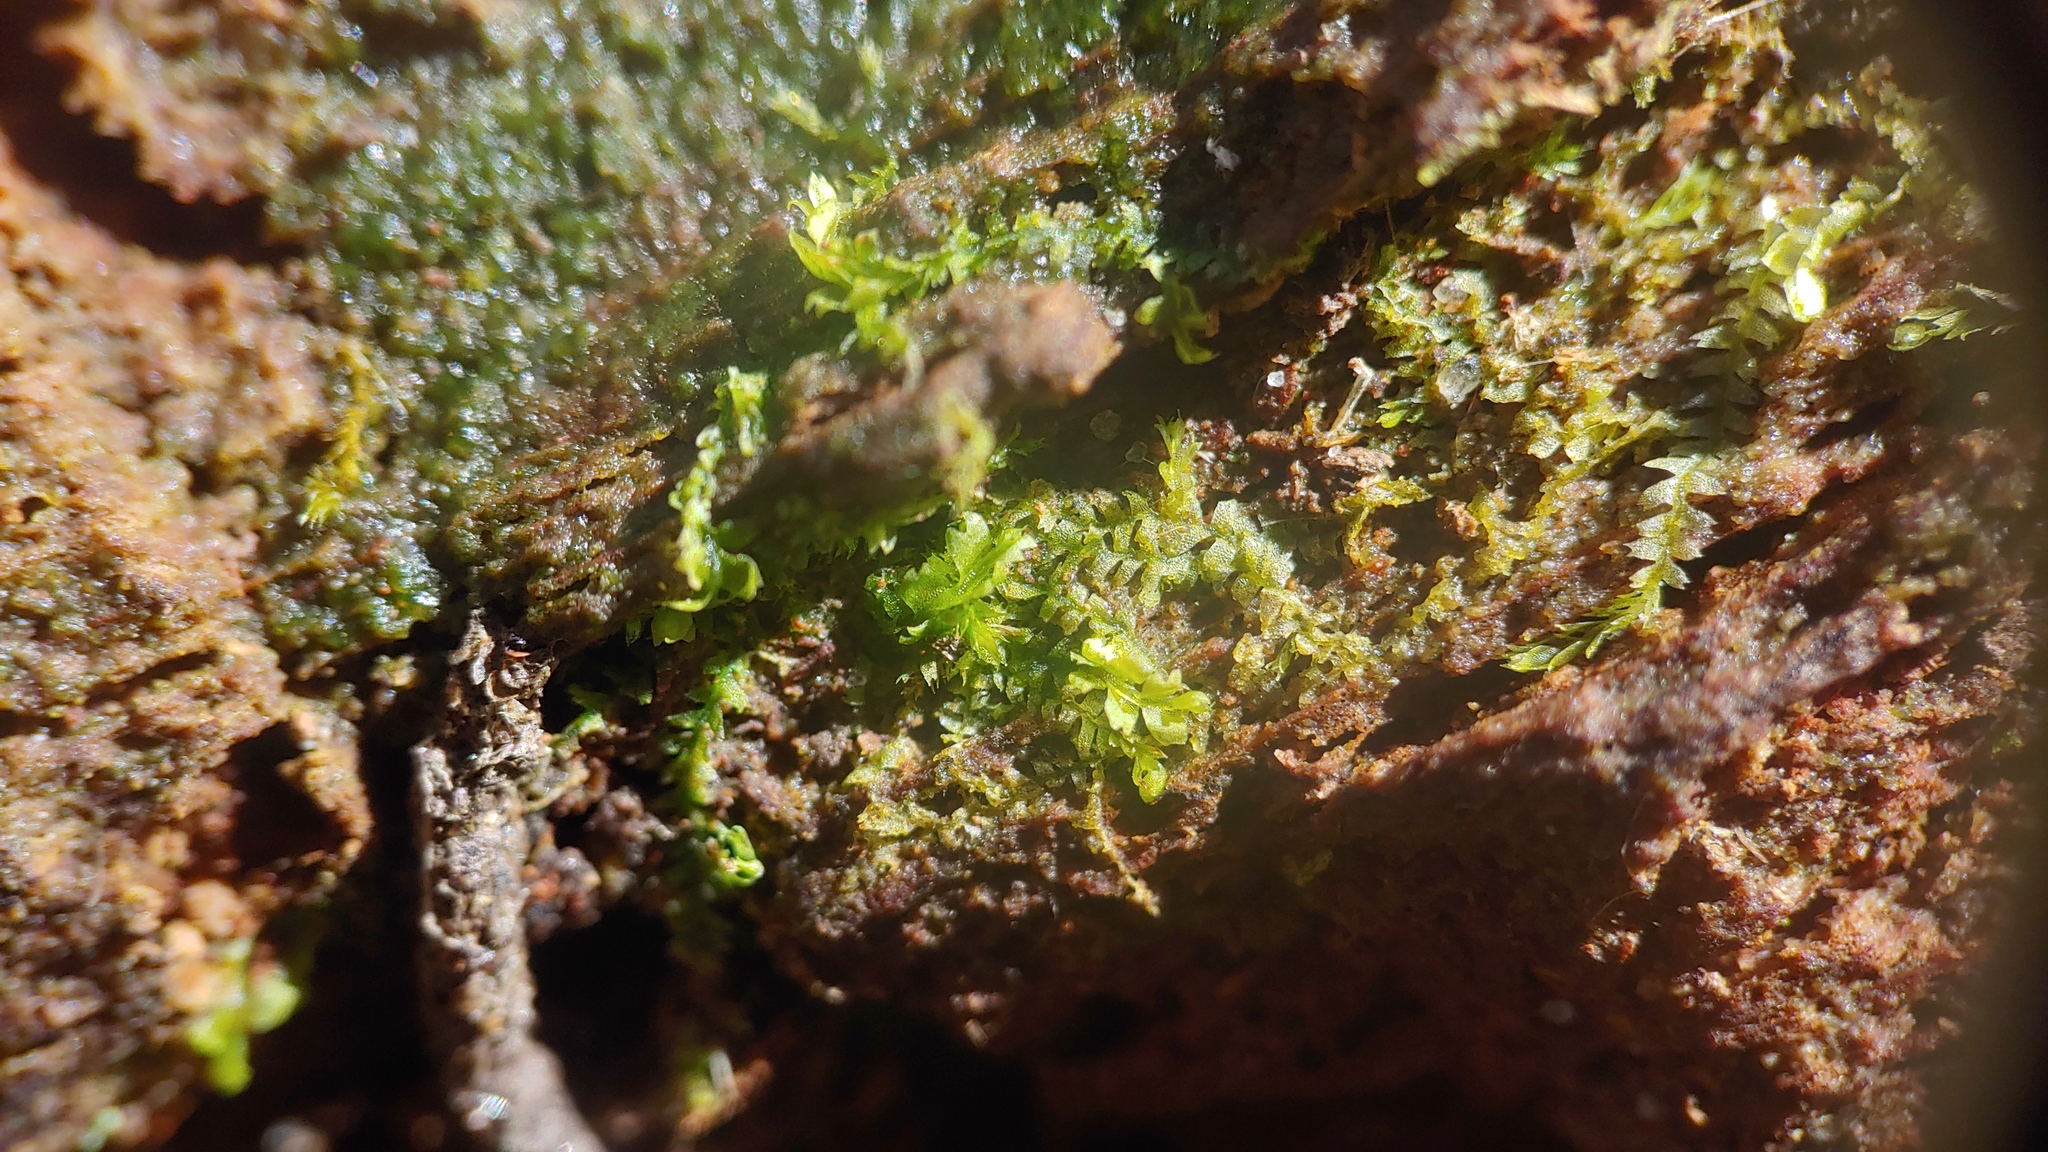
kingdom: Plantae
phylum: Marchantiophyta
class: Jungermanniopsida
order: Jungermanniales
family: Lophocoleaceae
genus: Lophocolea
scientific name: Lophocolea bidentata
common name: Bifid crestwort
